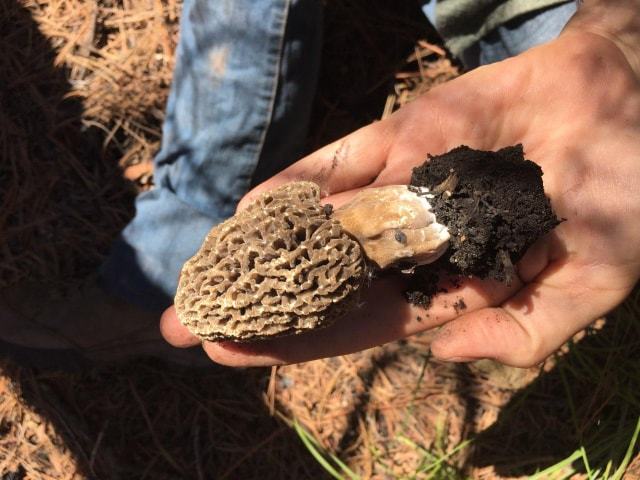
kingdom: Fungi
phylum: Ascomycota
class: Pezizomycetes
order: Pezizales
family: Morchellaceae
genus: Morchella
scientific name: Morchella tomentosa
